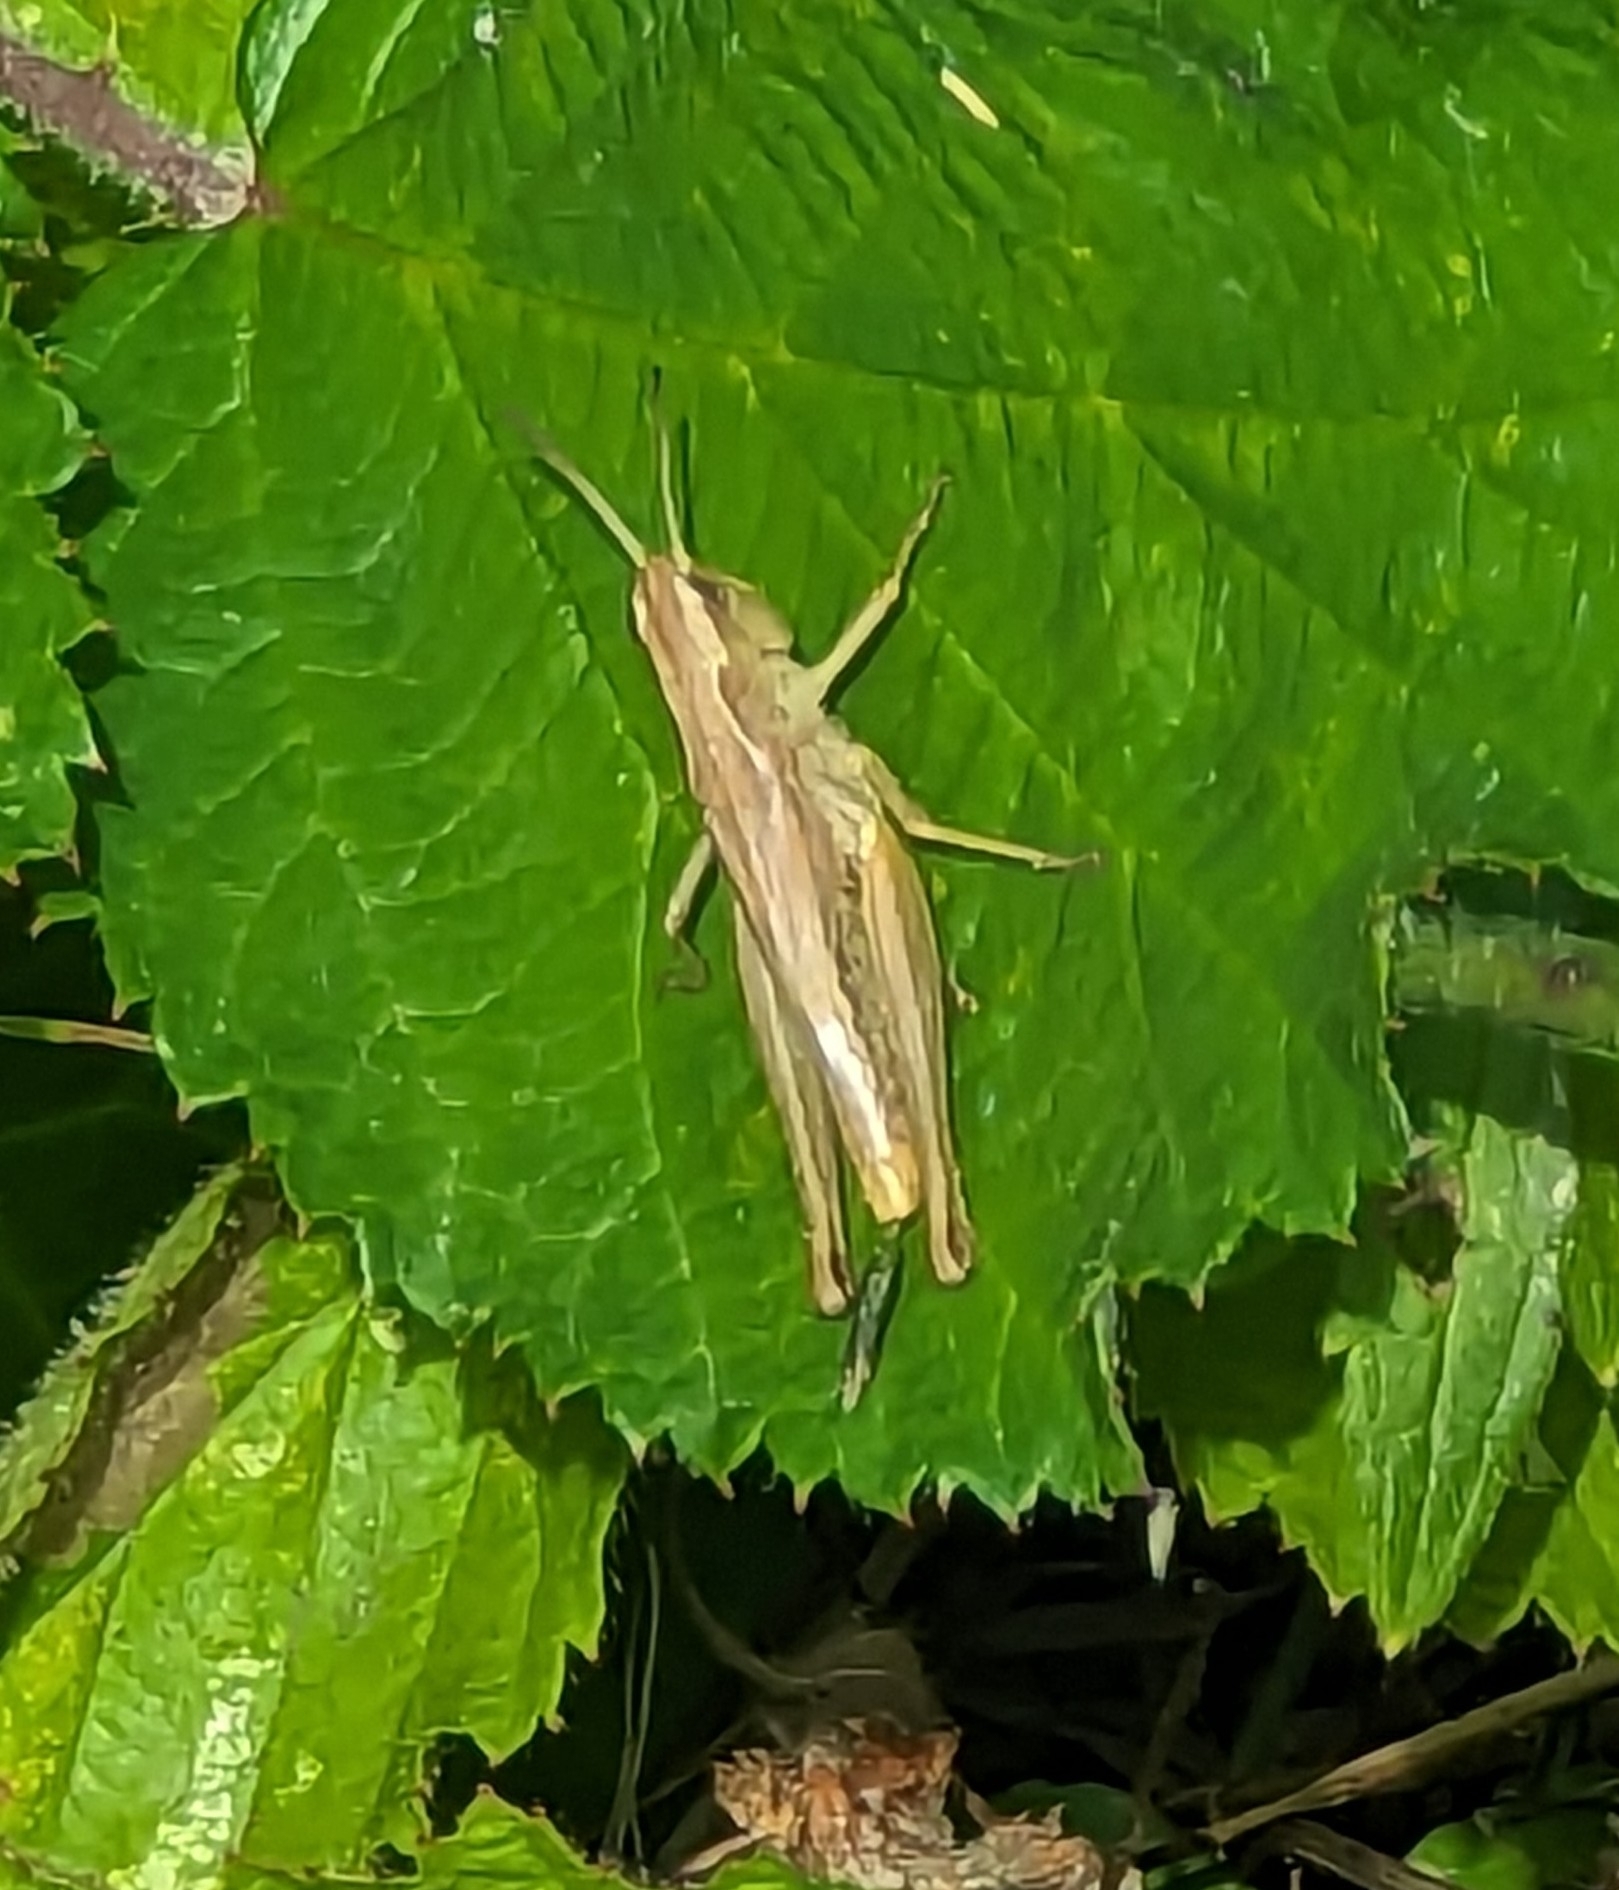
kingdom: Animalia
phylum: Arthropoda
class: Insecta
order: Orthoptera
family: Acrididae
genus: Pseudochorthippus
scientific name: Pseudochorthippus parallelus
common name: Meadow grasshopper
